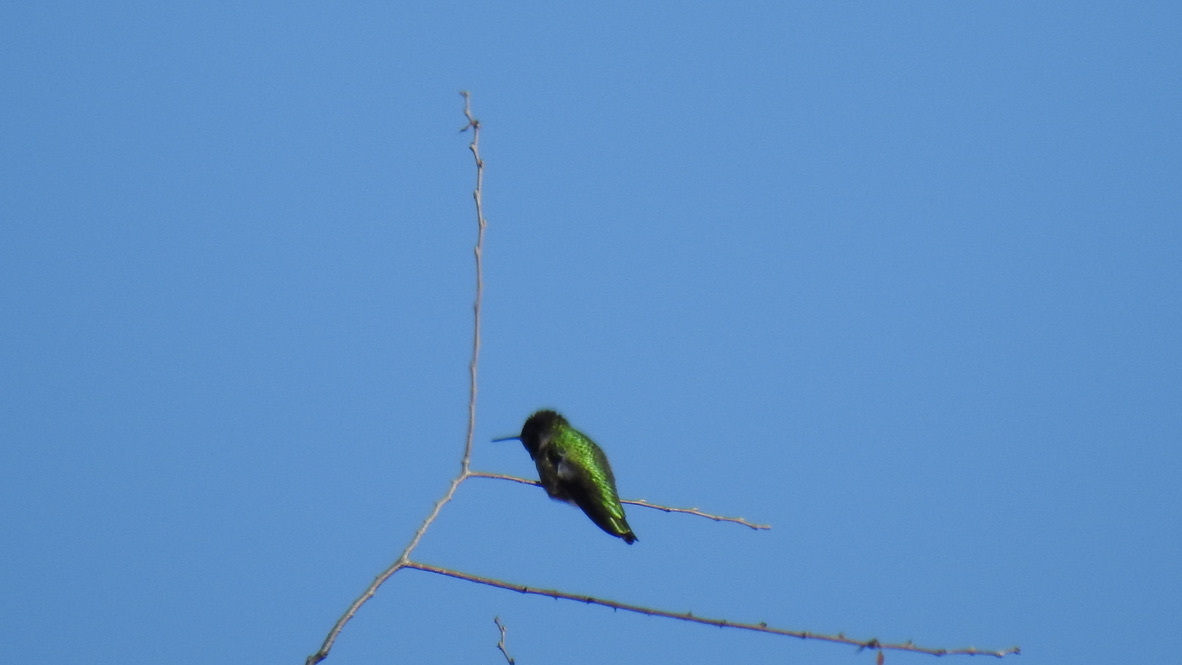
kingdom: Animalia
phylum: Chordata
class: Aves
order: Apodiformes
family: Trochilidae
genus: Calypte
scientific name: Calypte anna
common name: Anna's hummingbird
